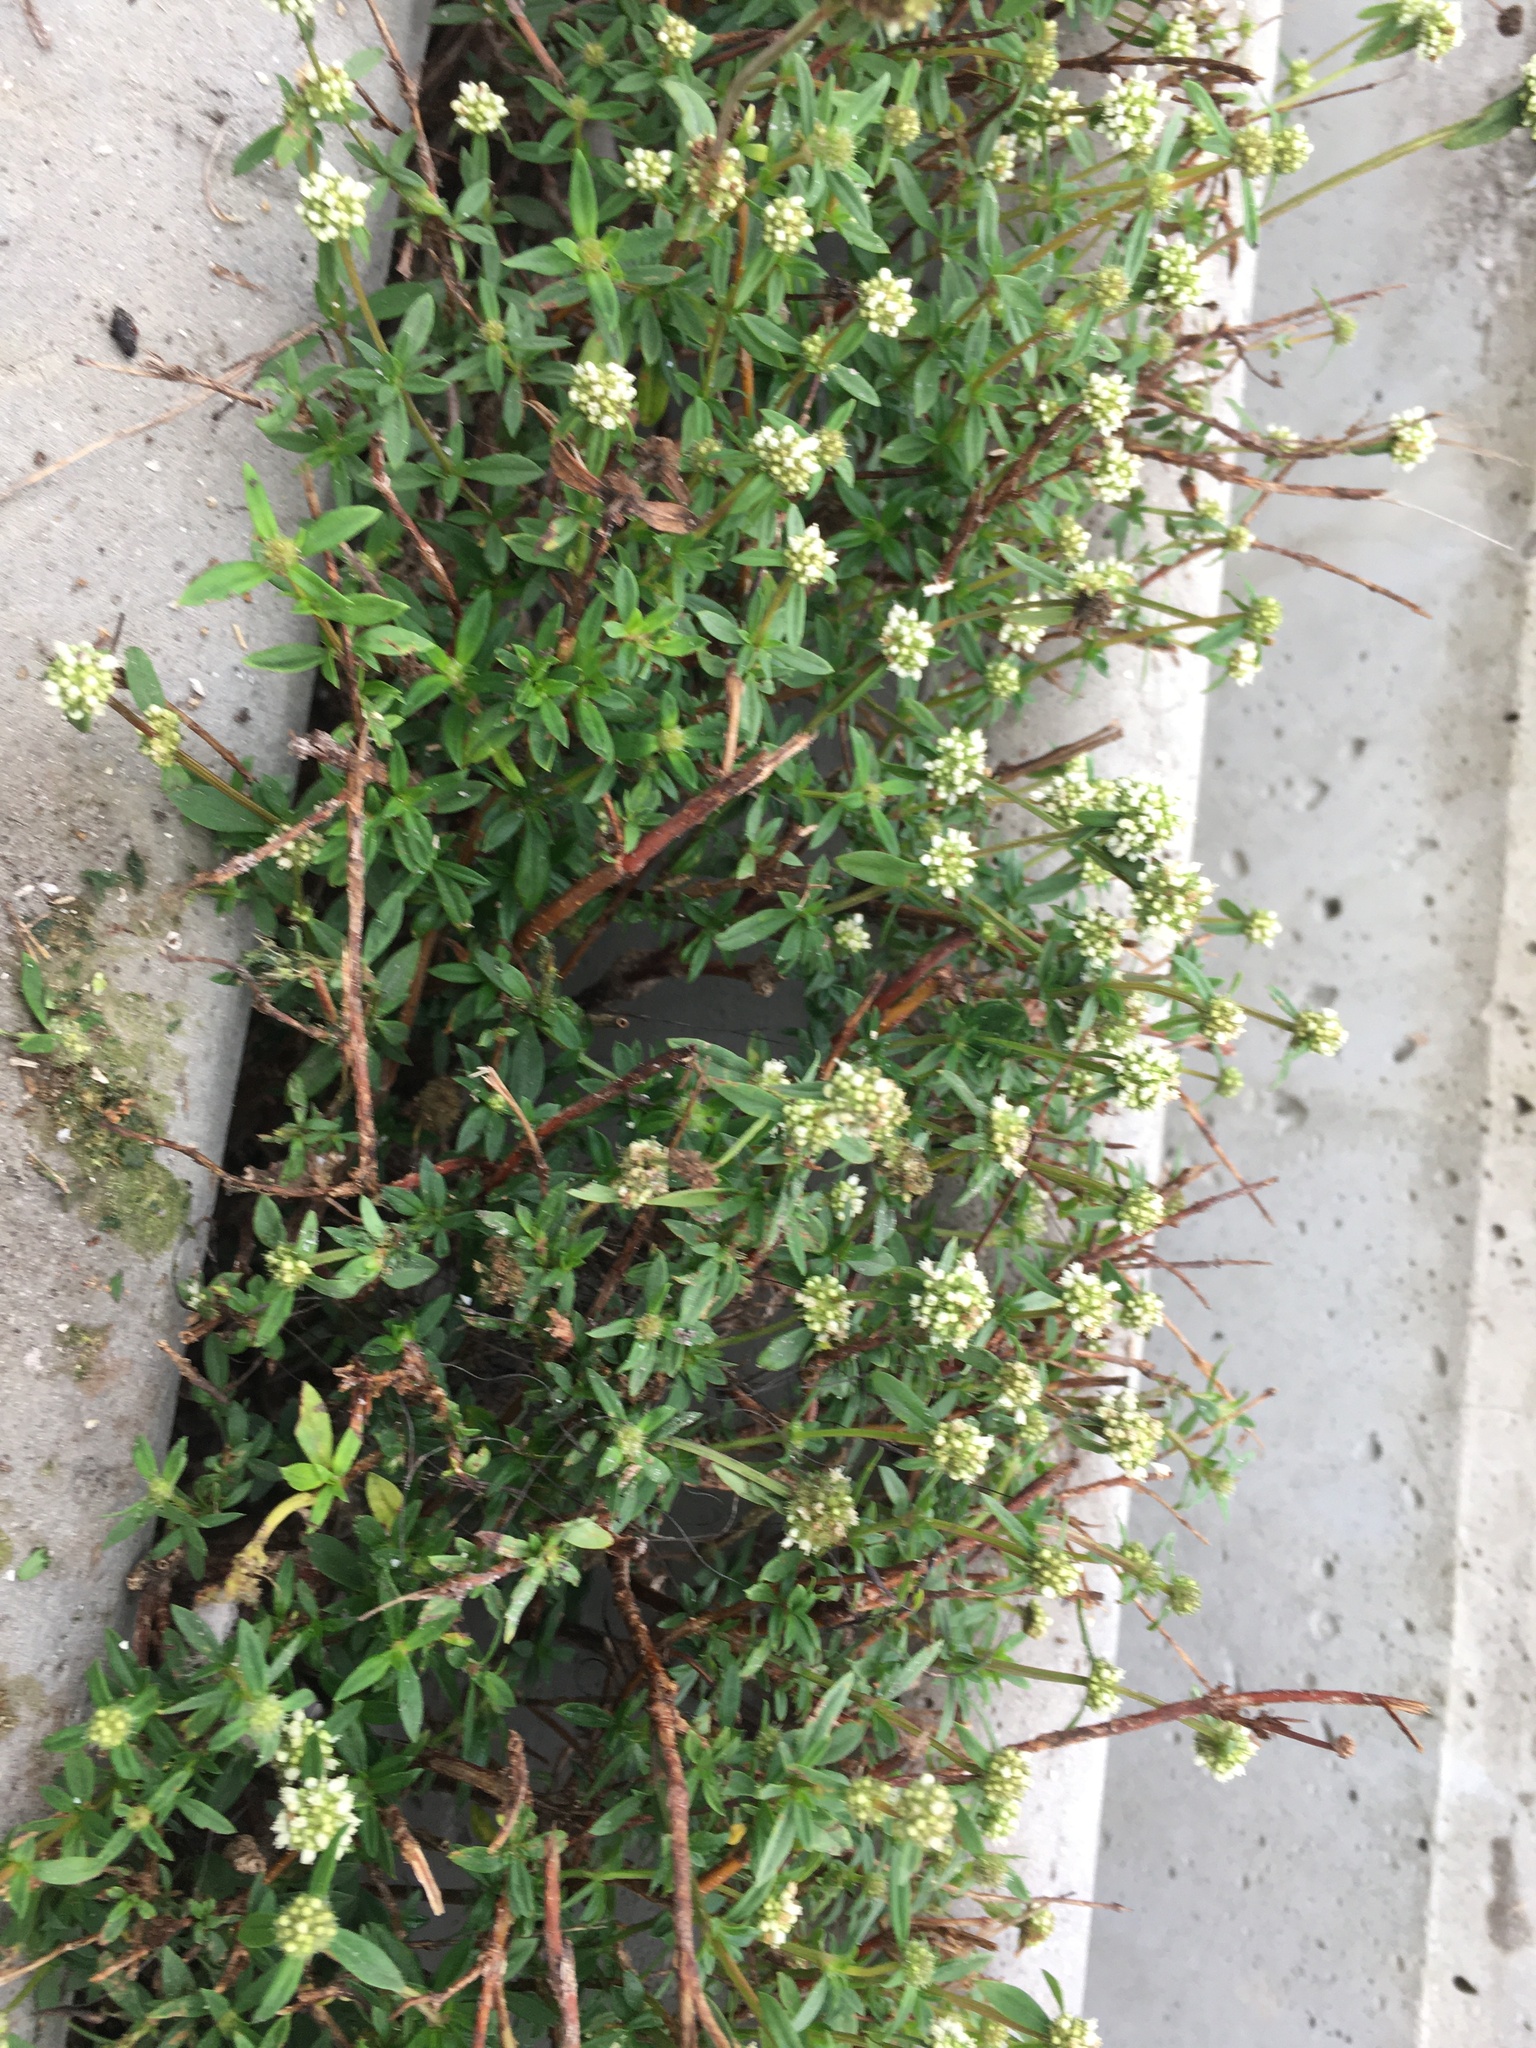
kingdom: Plantae
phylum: Tracheophyta
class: Magnoliopsida
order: Gentianales
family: Rubiaceae
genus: Spermacoce
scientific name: Spermacoce verticillata
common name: Shrubby false buttonweed
